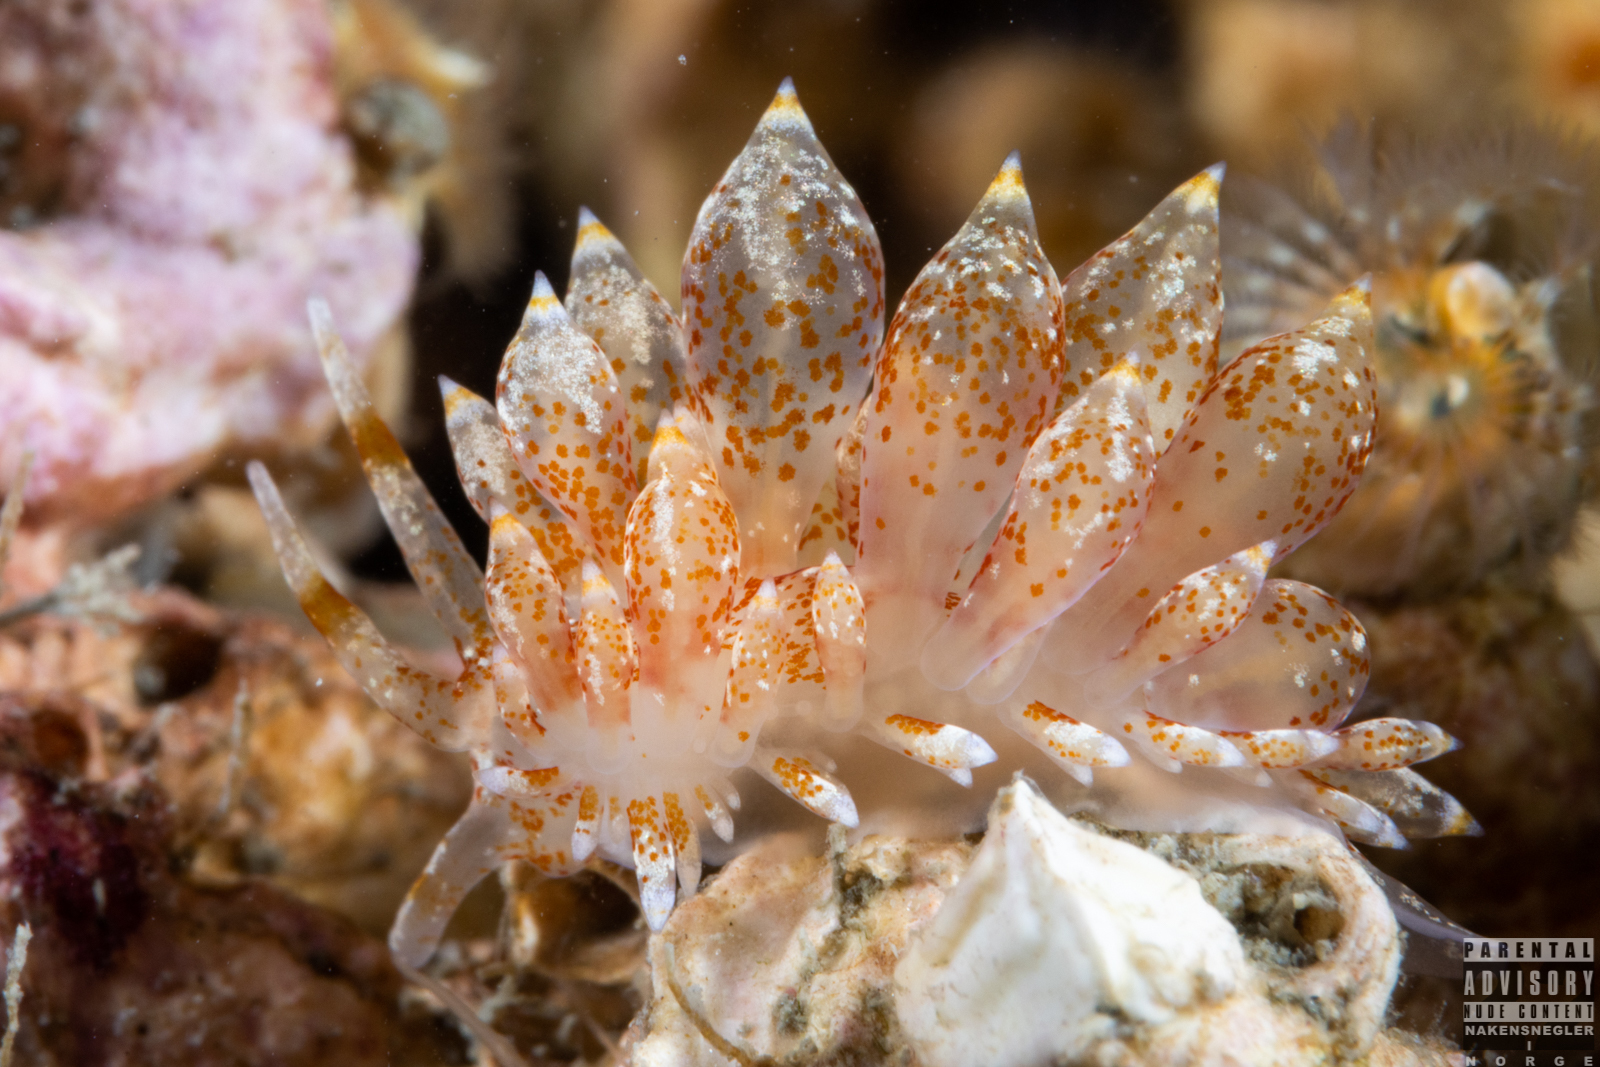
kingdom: Animalia
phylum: Mollusca
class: Gastropoda
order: Nudibranchia
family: Eubranchidae
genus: Amphorina
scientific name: Amphorina pallida
